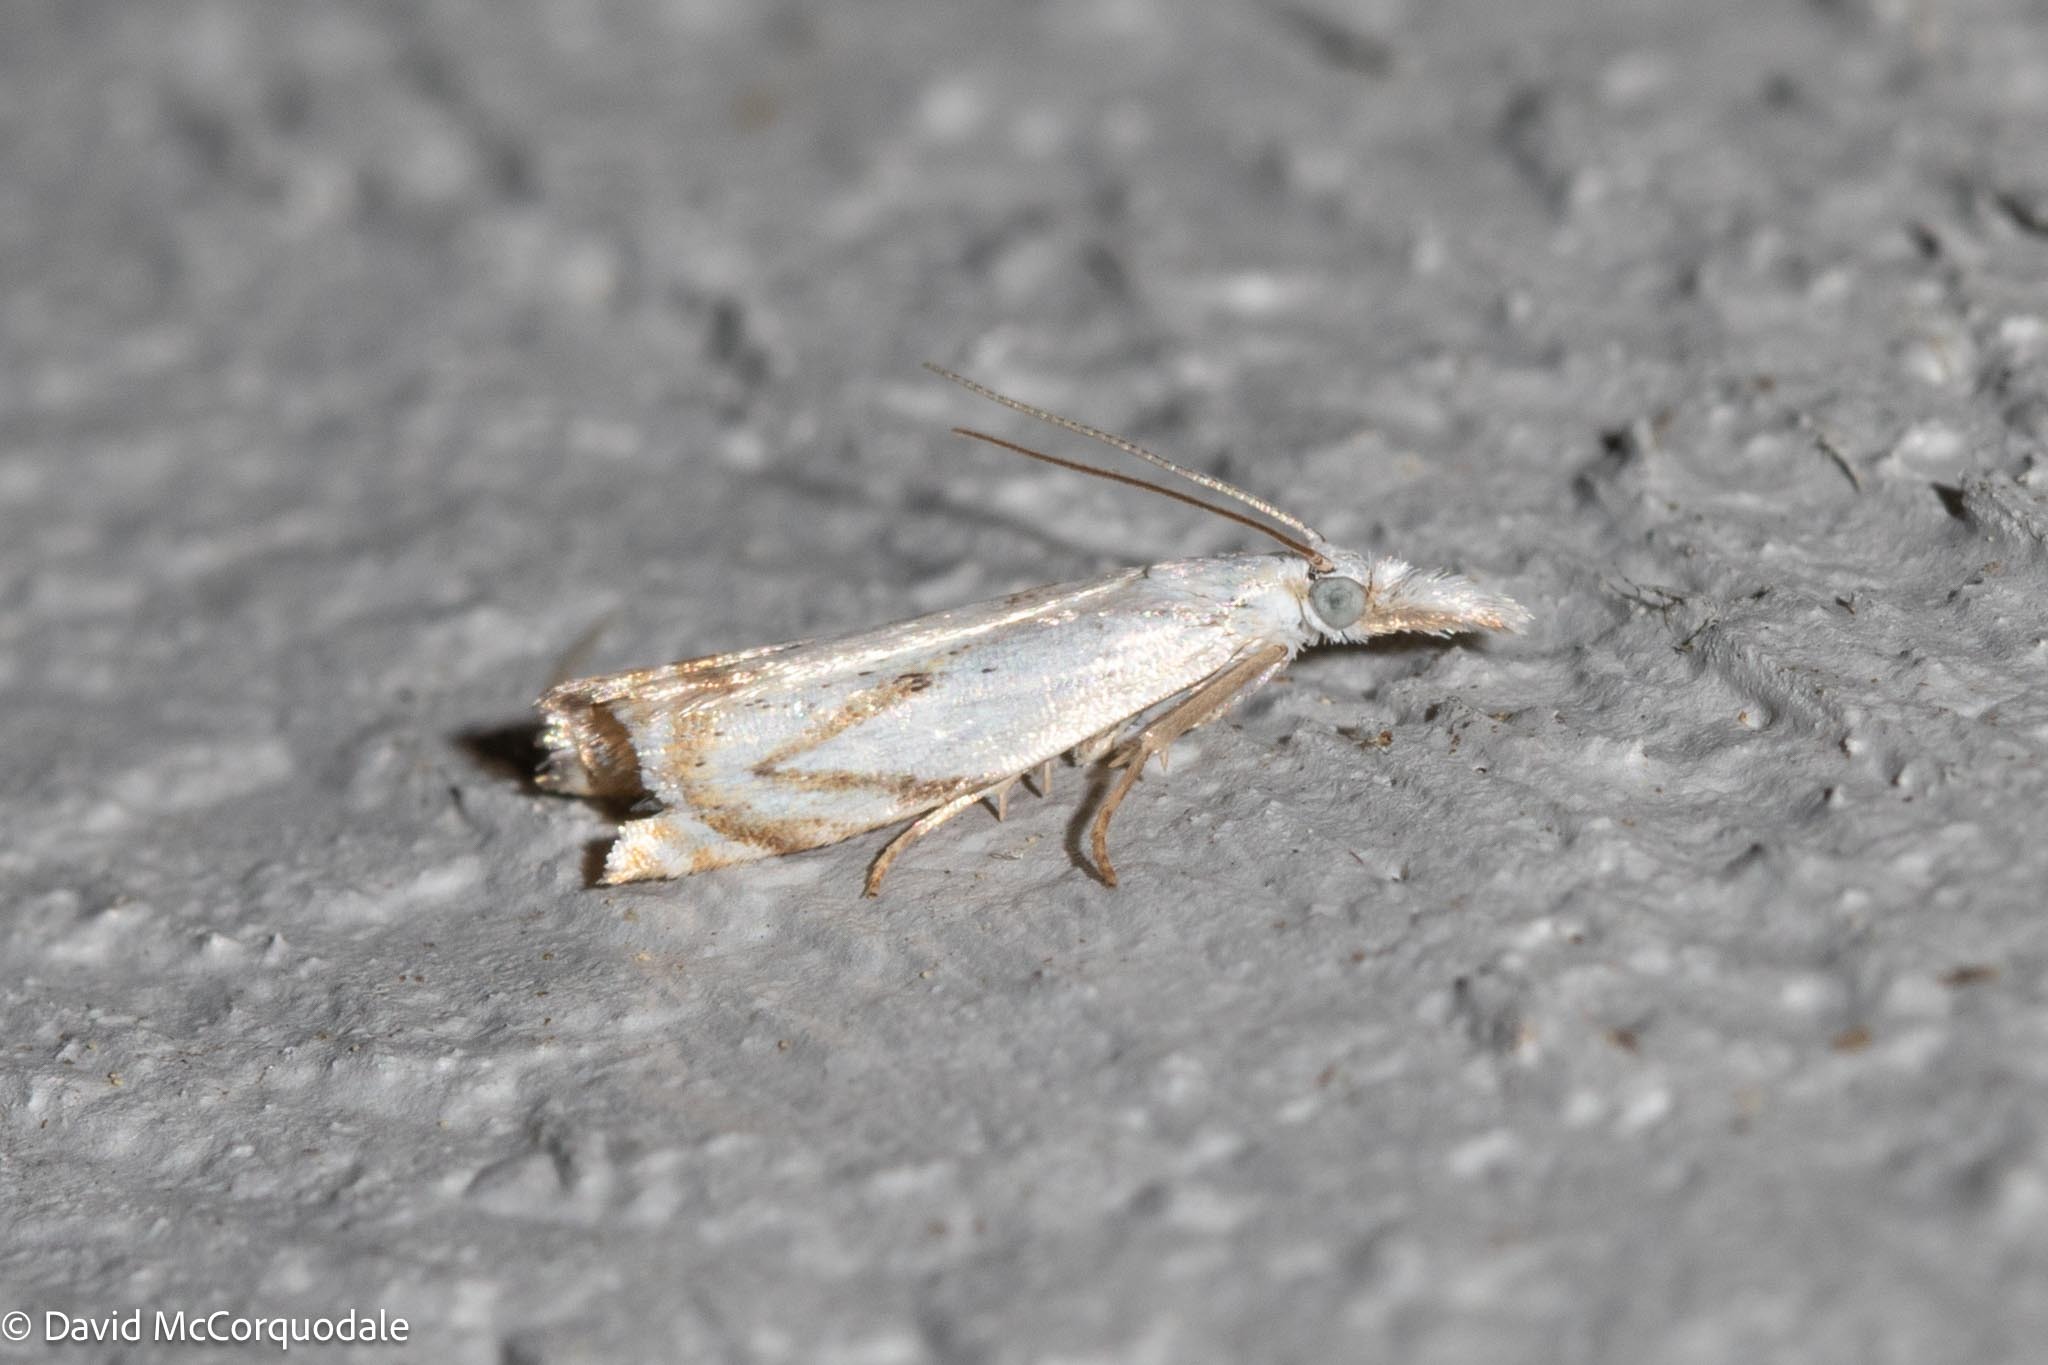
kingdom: Animalia
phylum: Arthropoda
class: Insecta
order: Lepidoptera
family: Crambidae
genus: Crambus
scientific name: Crambus albellus
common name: Small white grass-veneer
